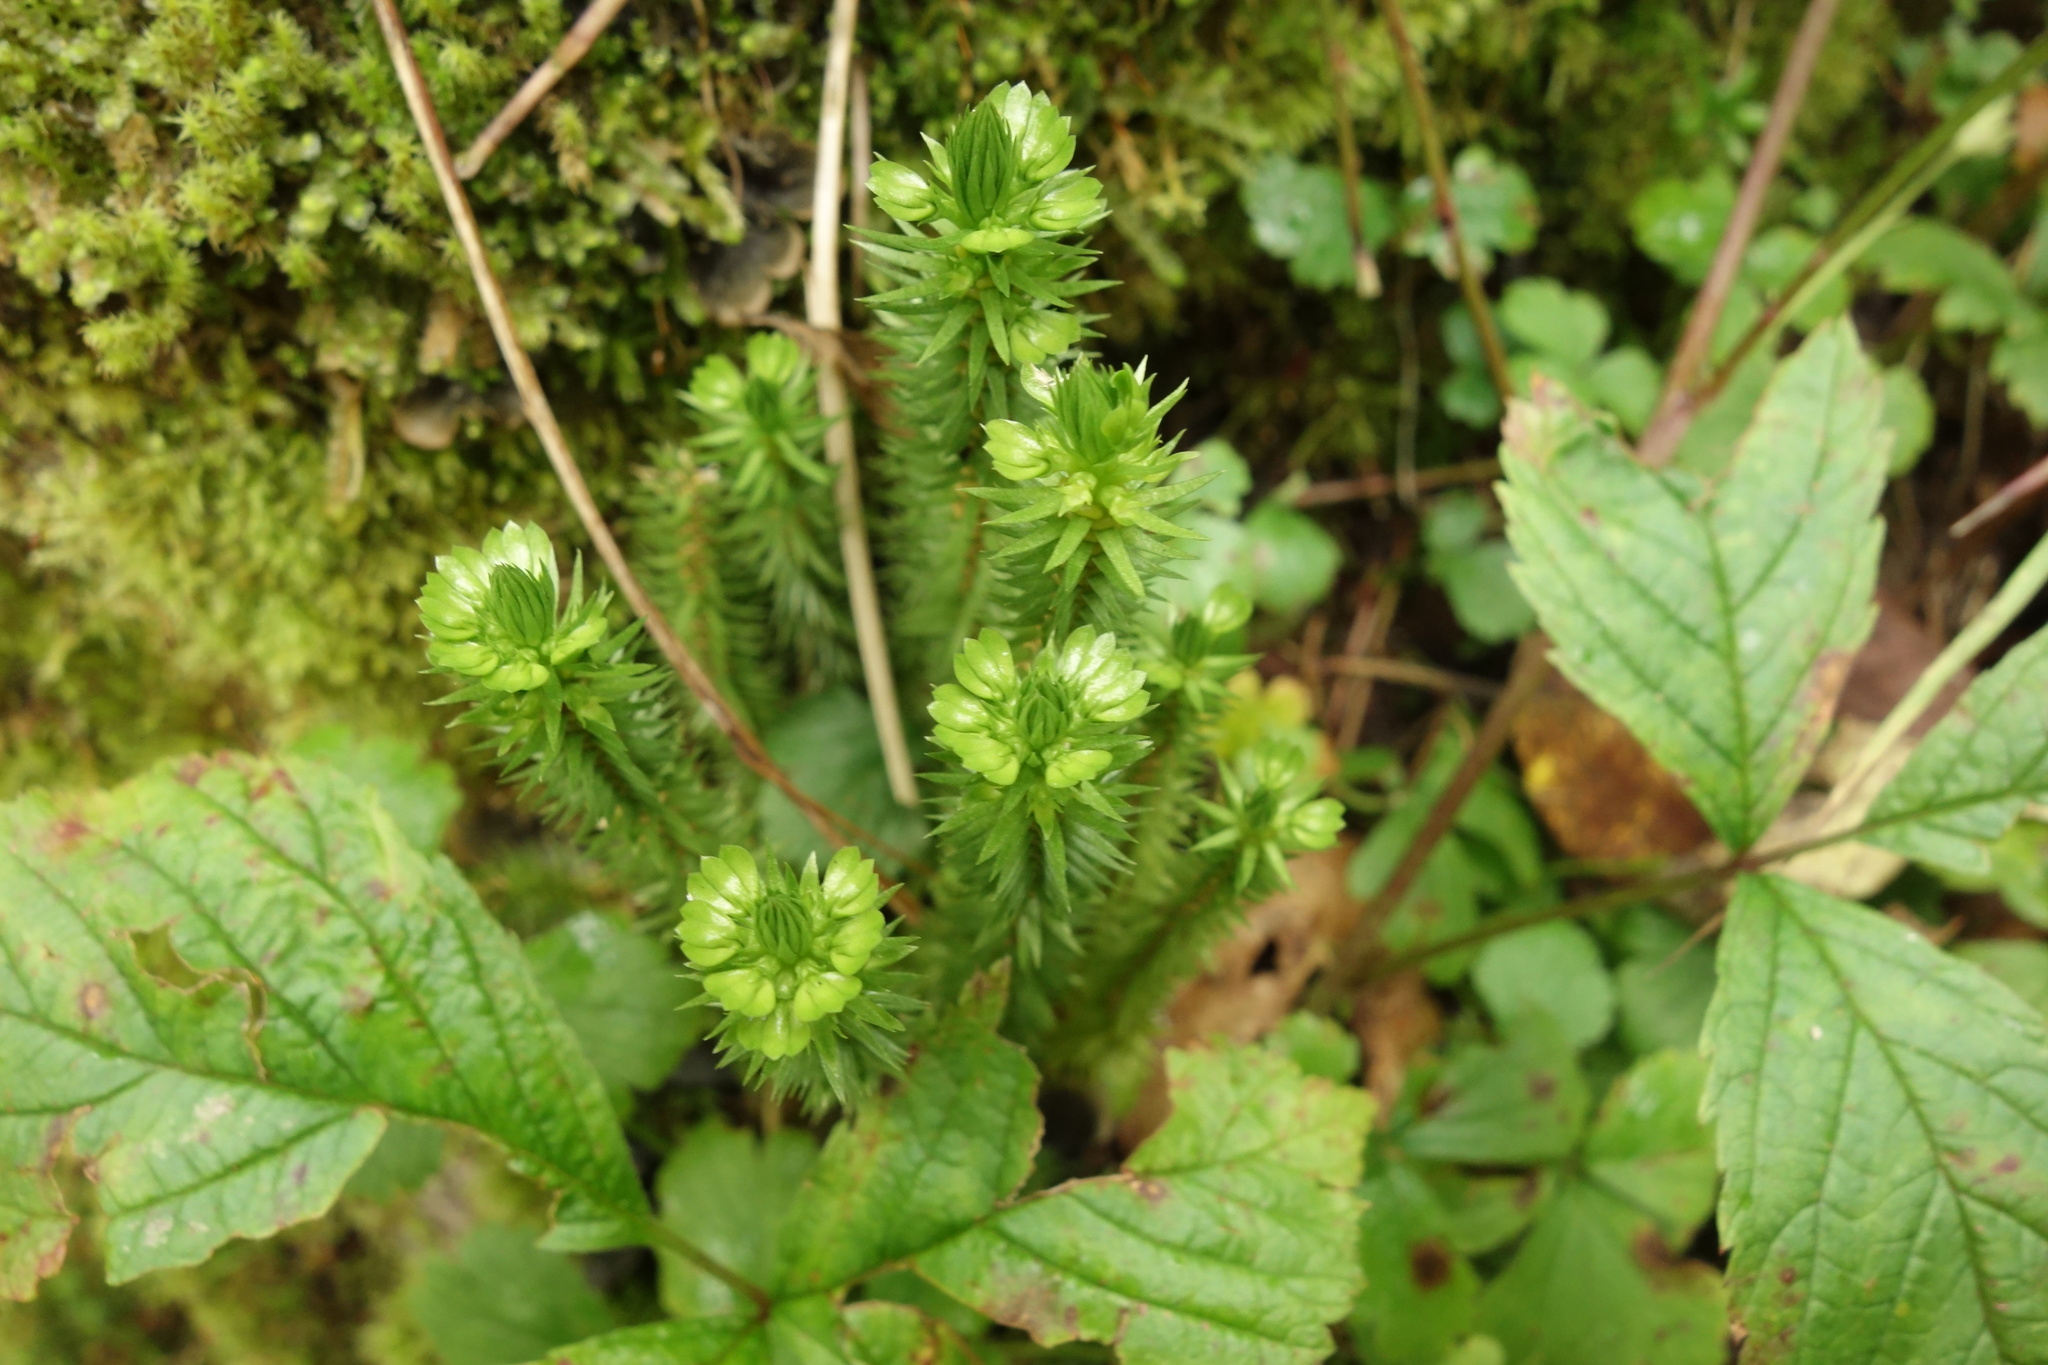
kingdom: Plantae
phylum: Tracheophyta
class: Lycopodiopsida
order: Lycopodiales
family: Lycopodiaceae
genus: Huperzia
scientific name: Huperzia selago
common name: Northern firmoss
